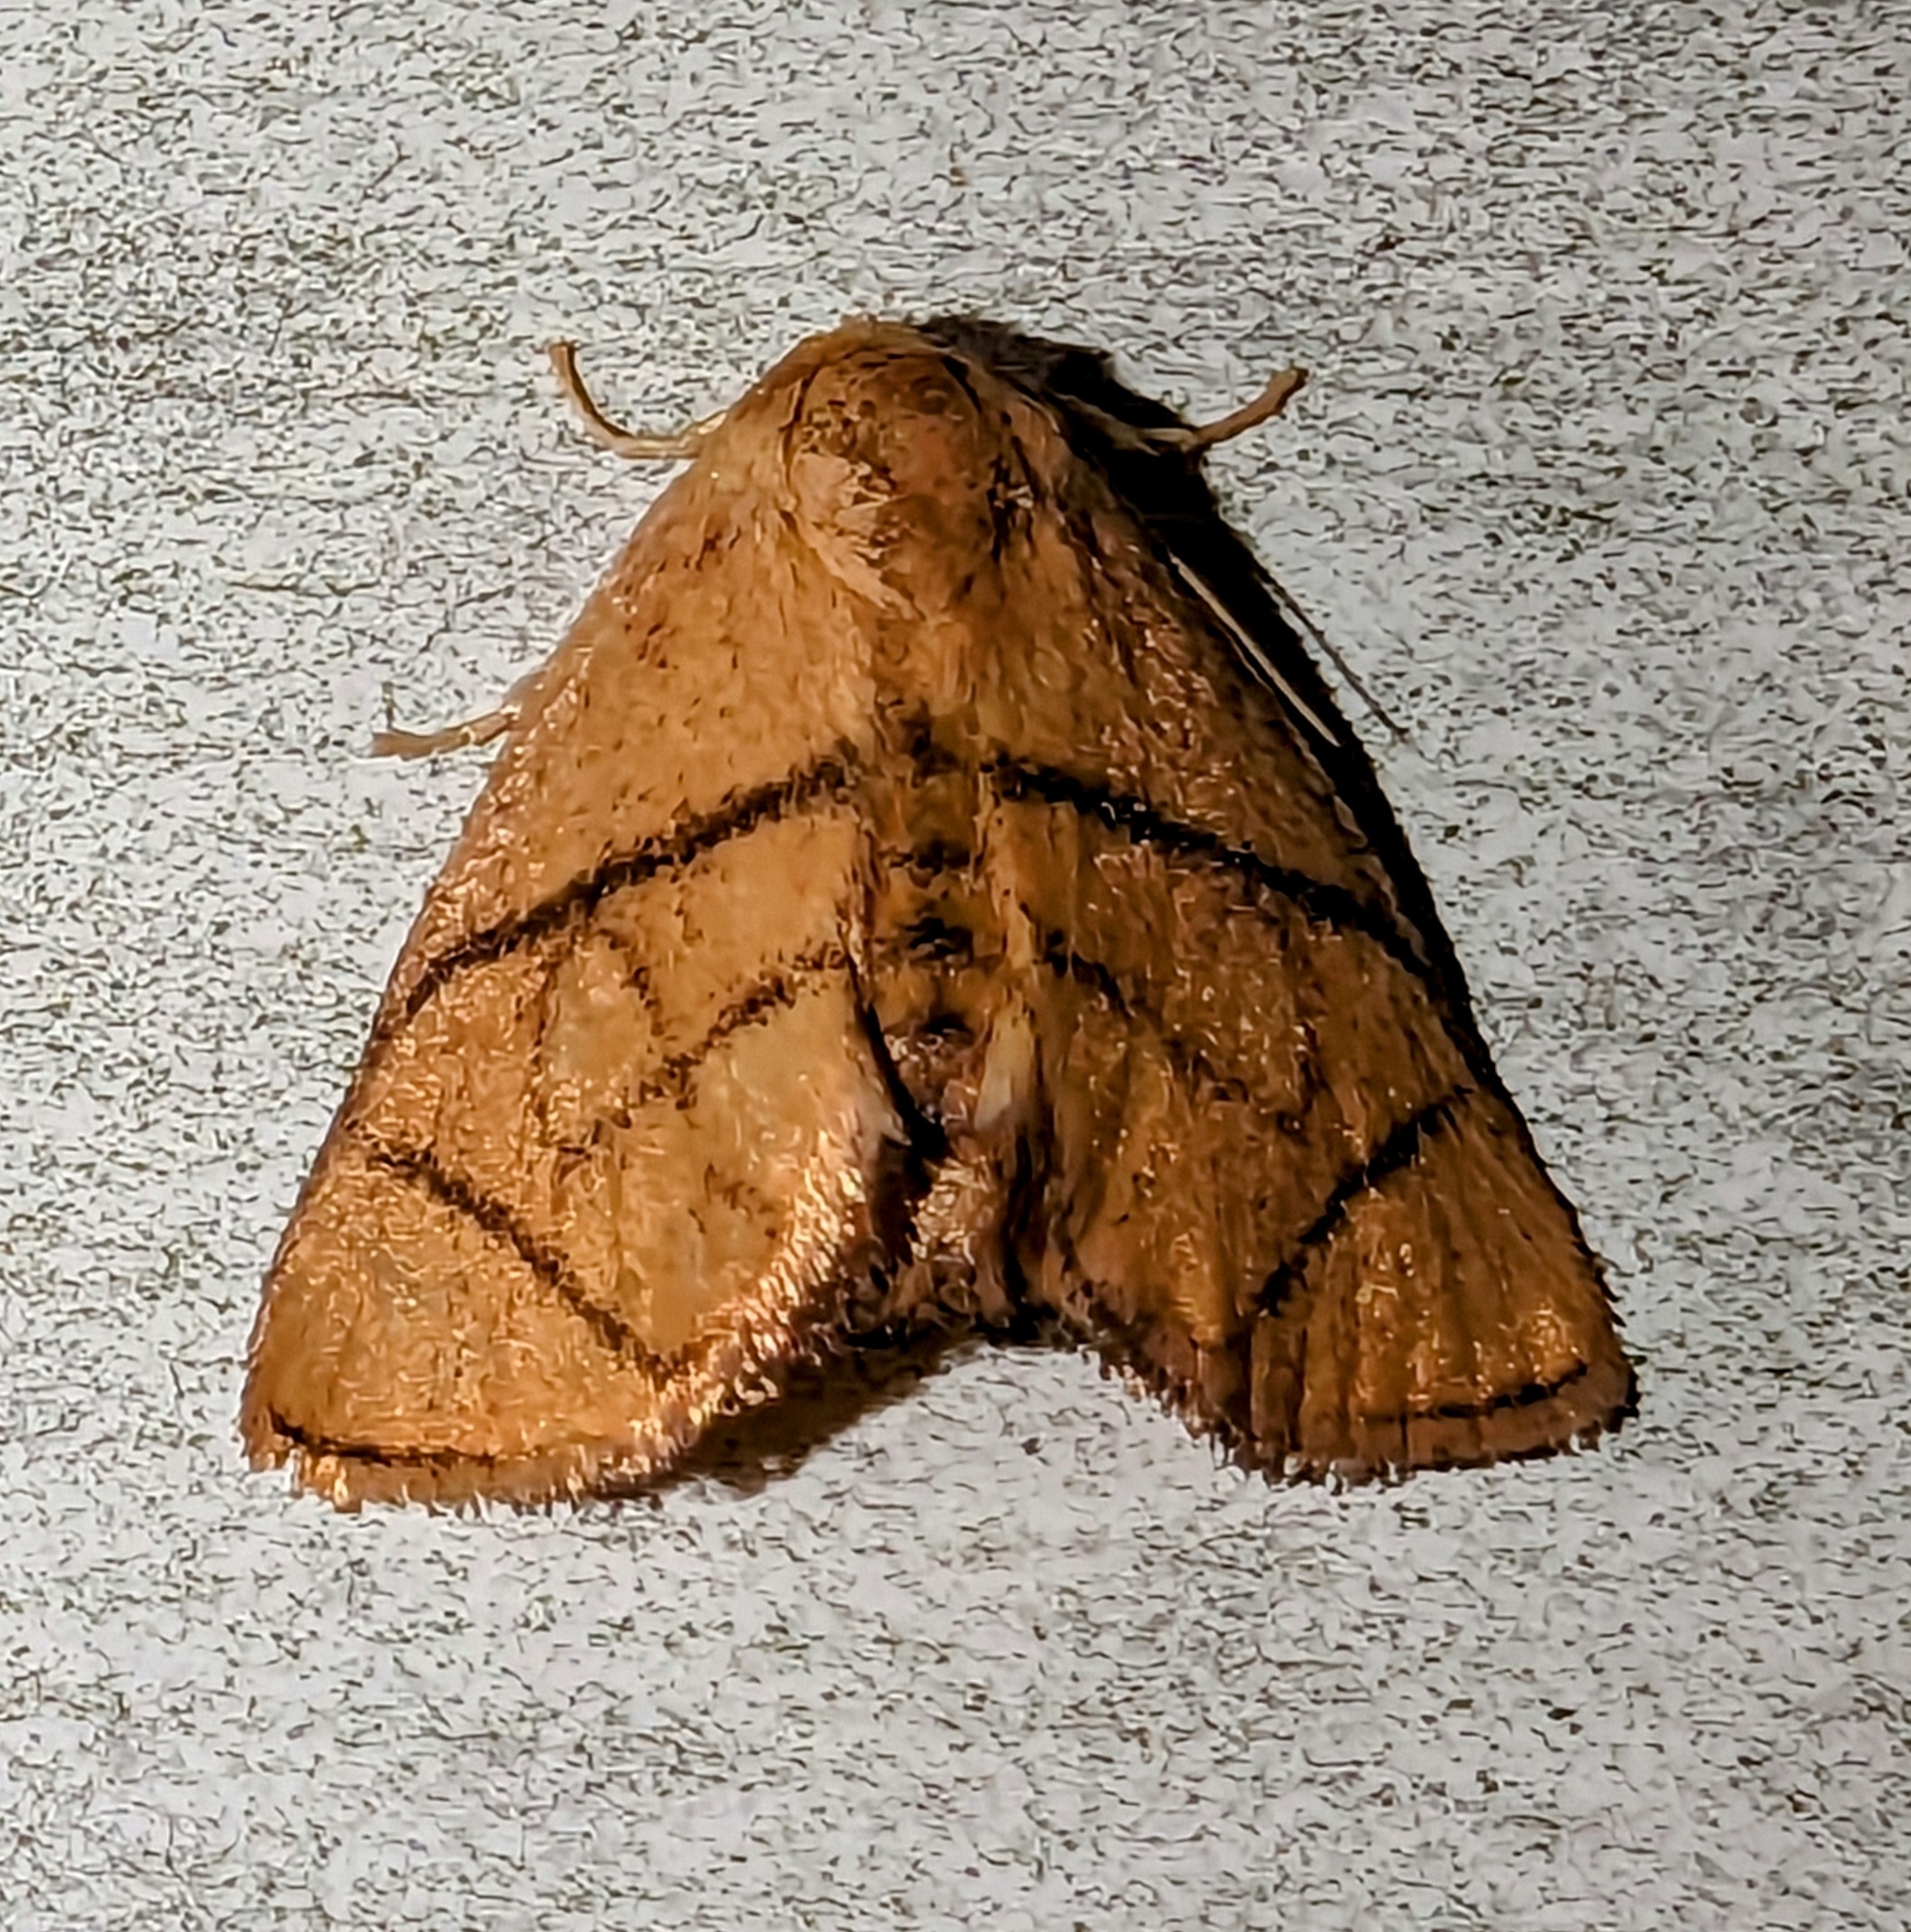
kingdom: Animalia
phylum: Arthropoda
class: Insecta
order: Lepidoptera
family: Limacodidae
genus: Apoda
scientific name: Apoda y-inversa
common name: Yellow-collared slug moth
